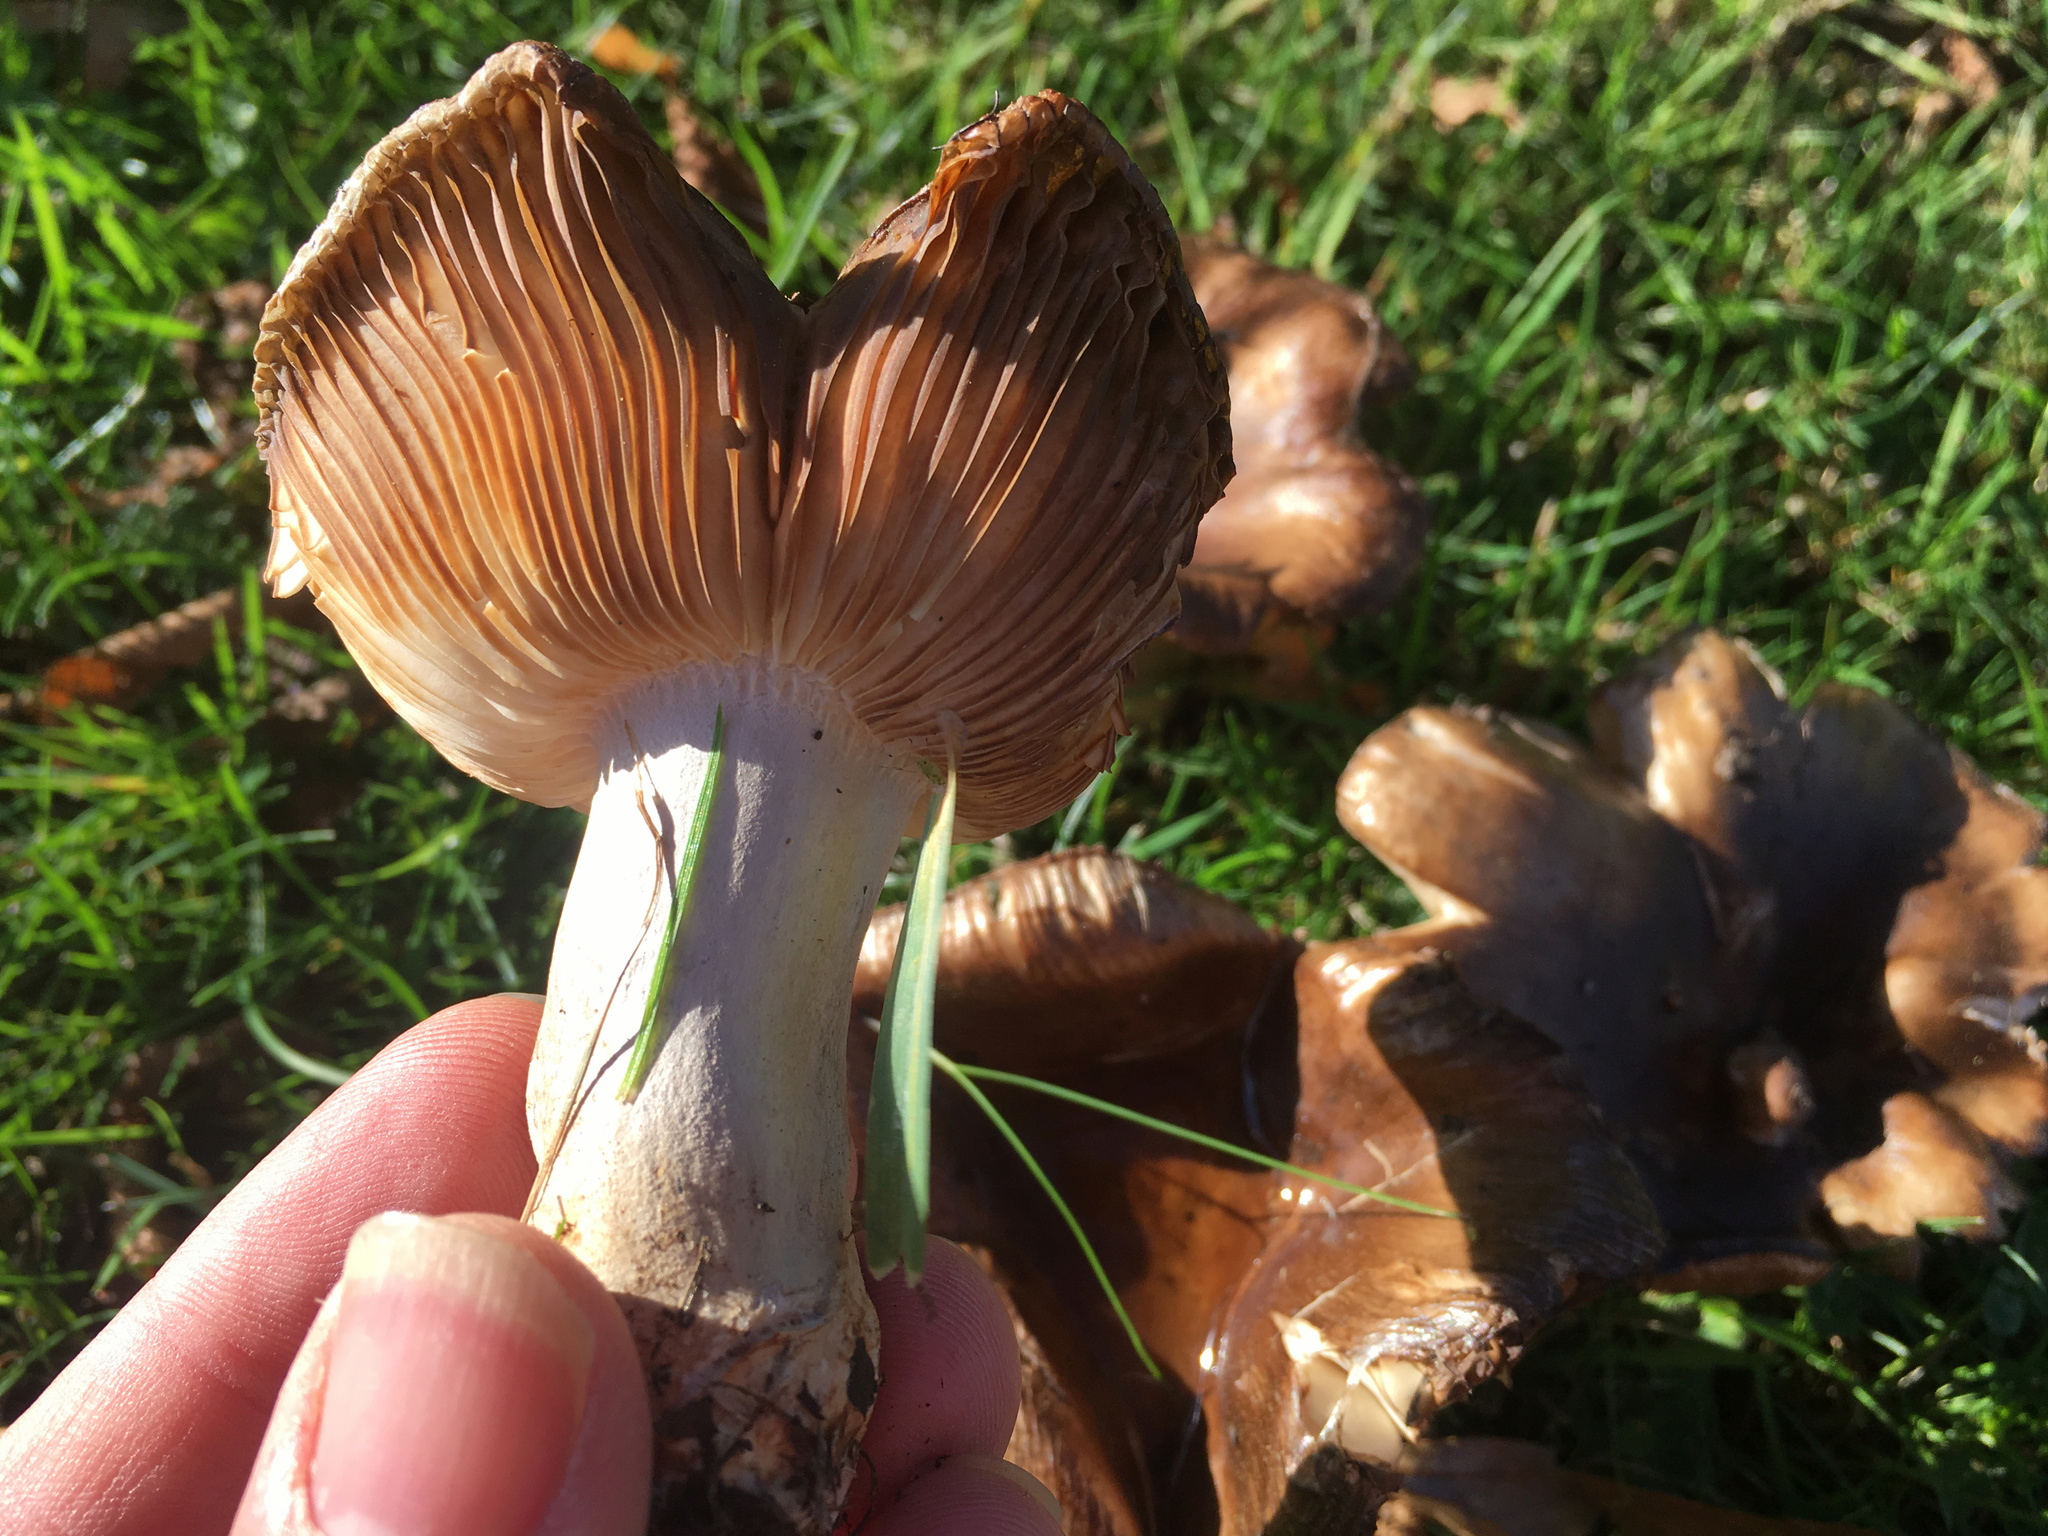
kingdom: Fungi
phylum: Basidiomycota
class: Agaricomycetes
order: Russulales
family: Russulaceae
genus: Russula
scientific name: Russula amoenolens
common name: Camembert brittlegill
